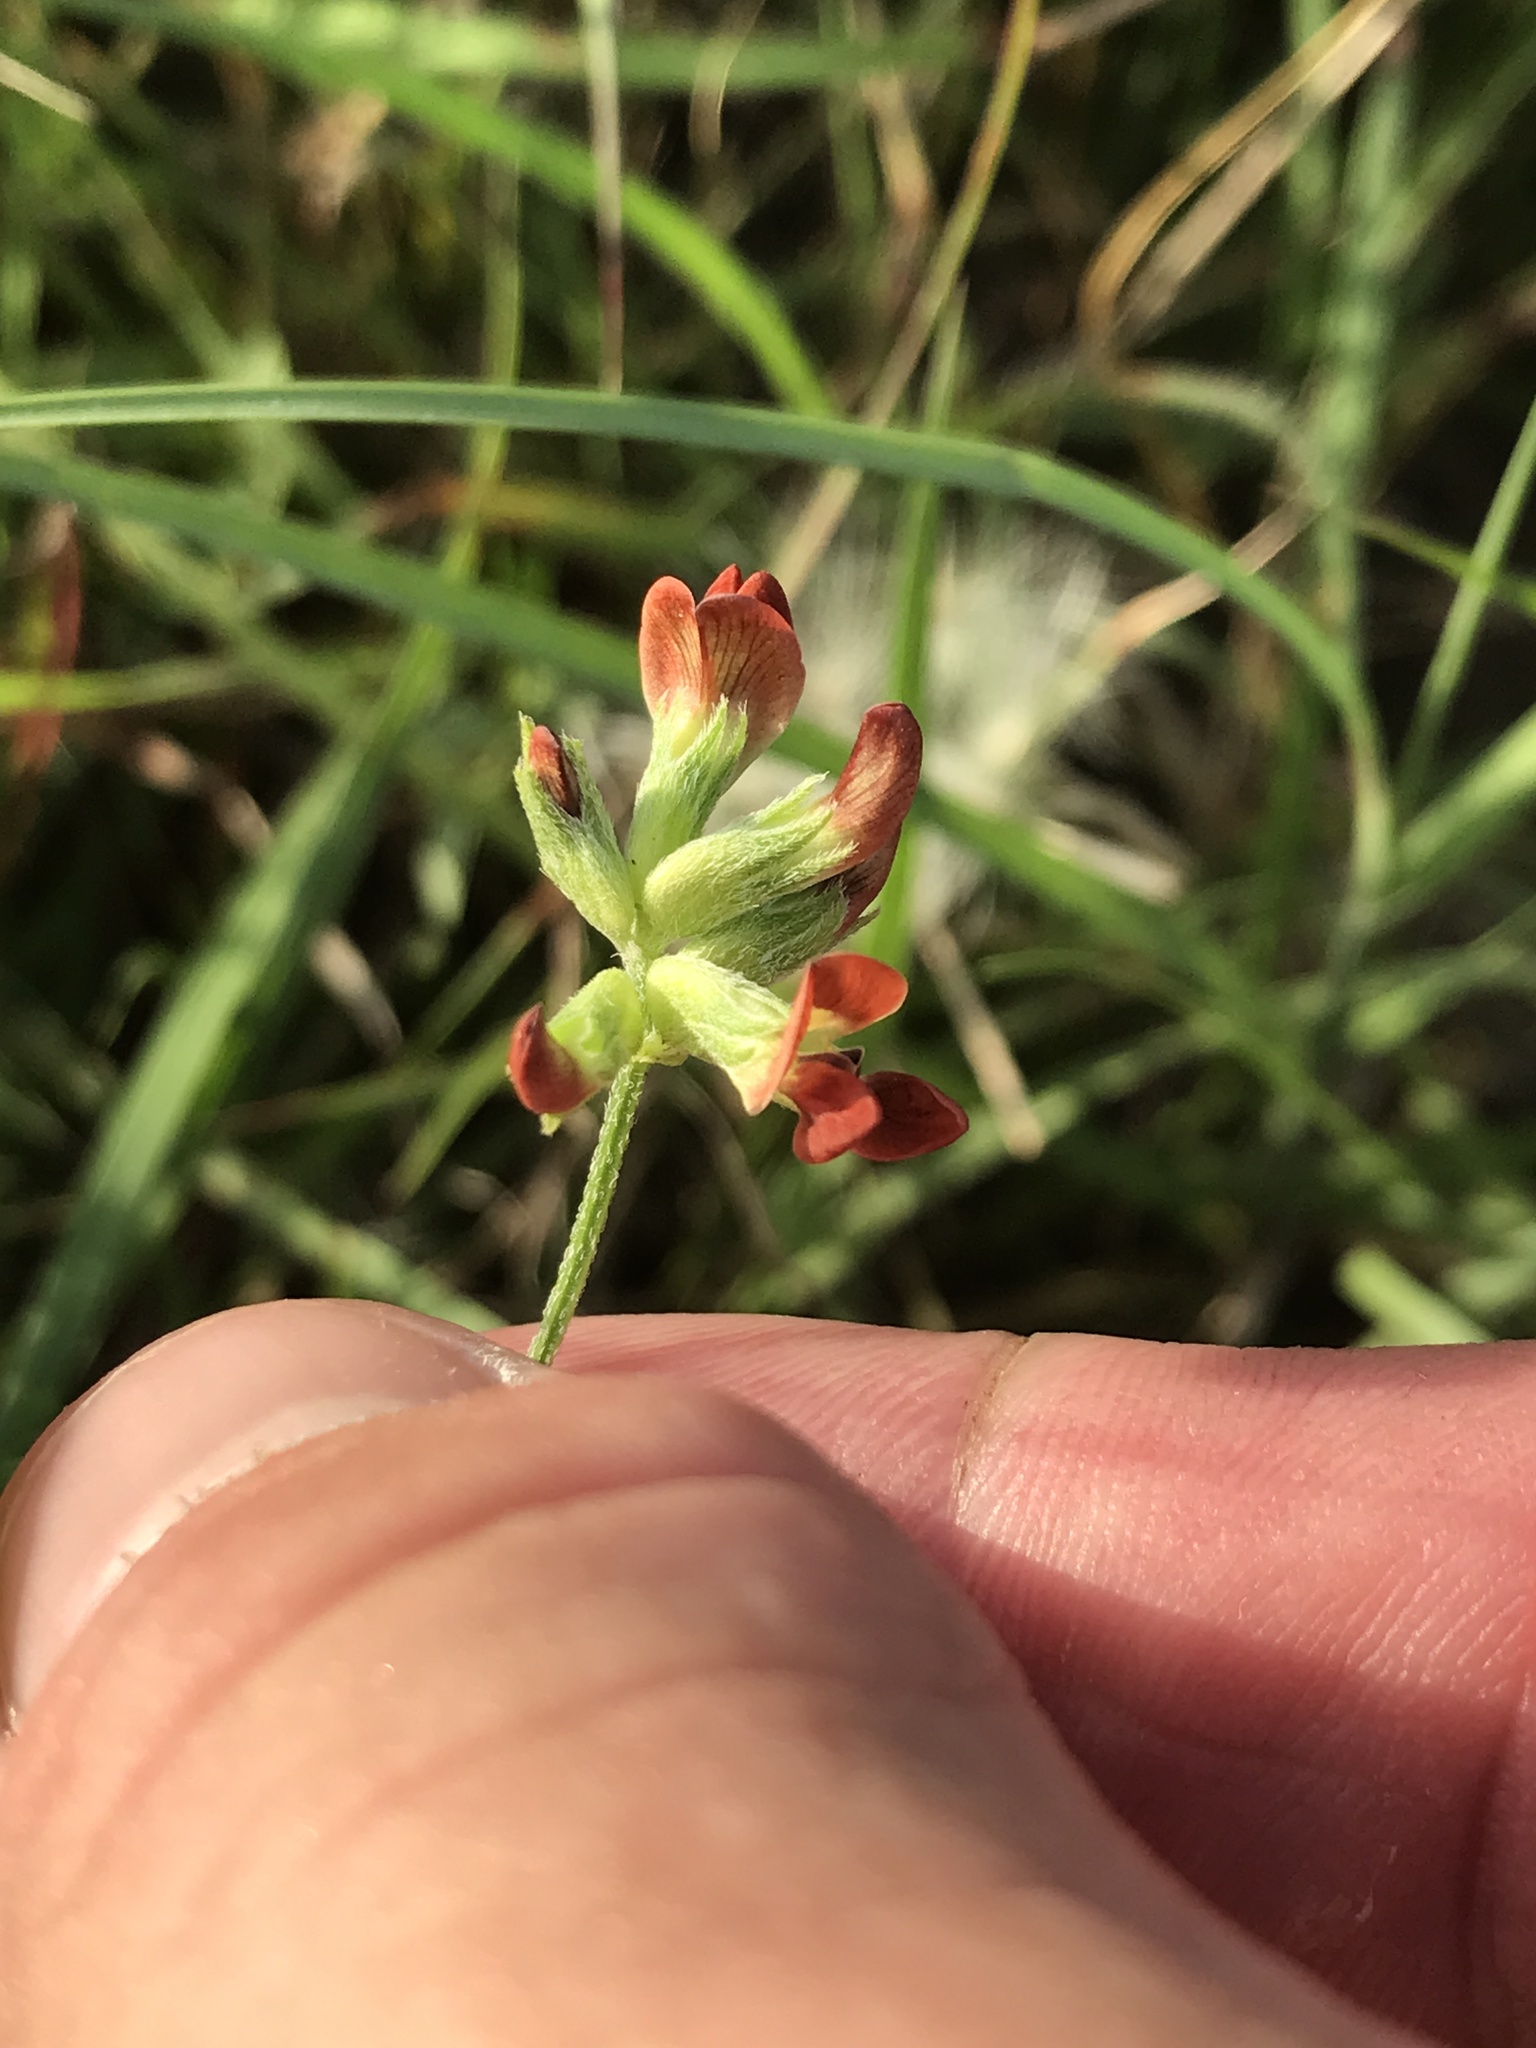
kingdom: Plantae
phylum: Tracheophyta
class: Magnoliopsida
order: Fabales
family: Fabaceae
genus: Pediomelum
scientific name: Pediomelum rhombifolium
